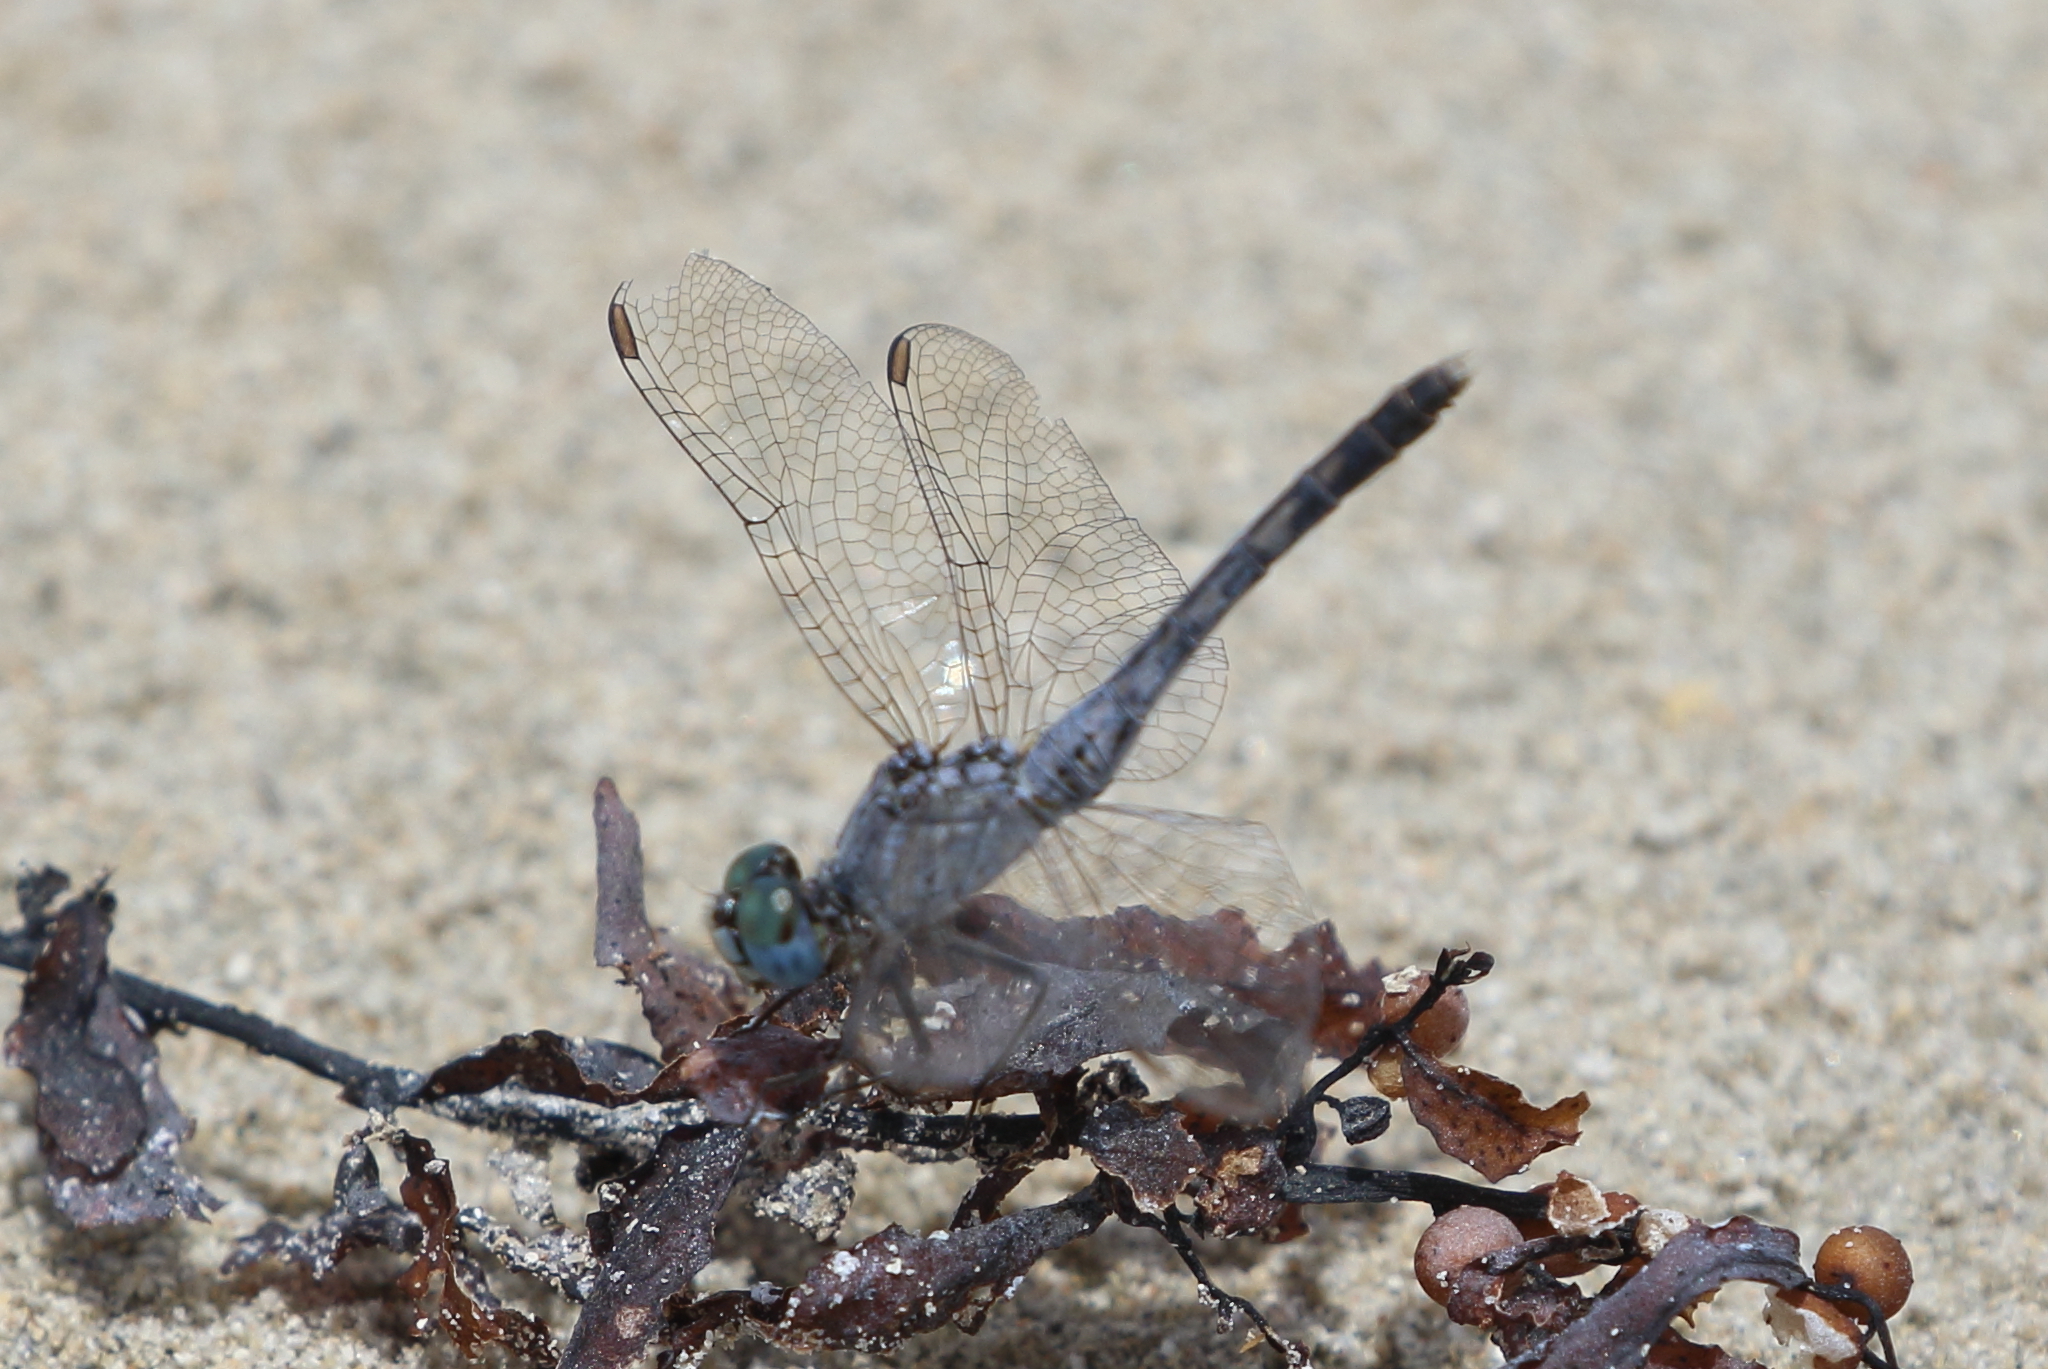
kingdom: Animalia
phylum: Arthropoda
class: Insecta
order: Odonata
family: Libellulidae
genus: Diplacodes
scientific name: Diplacodes trivialis
